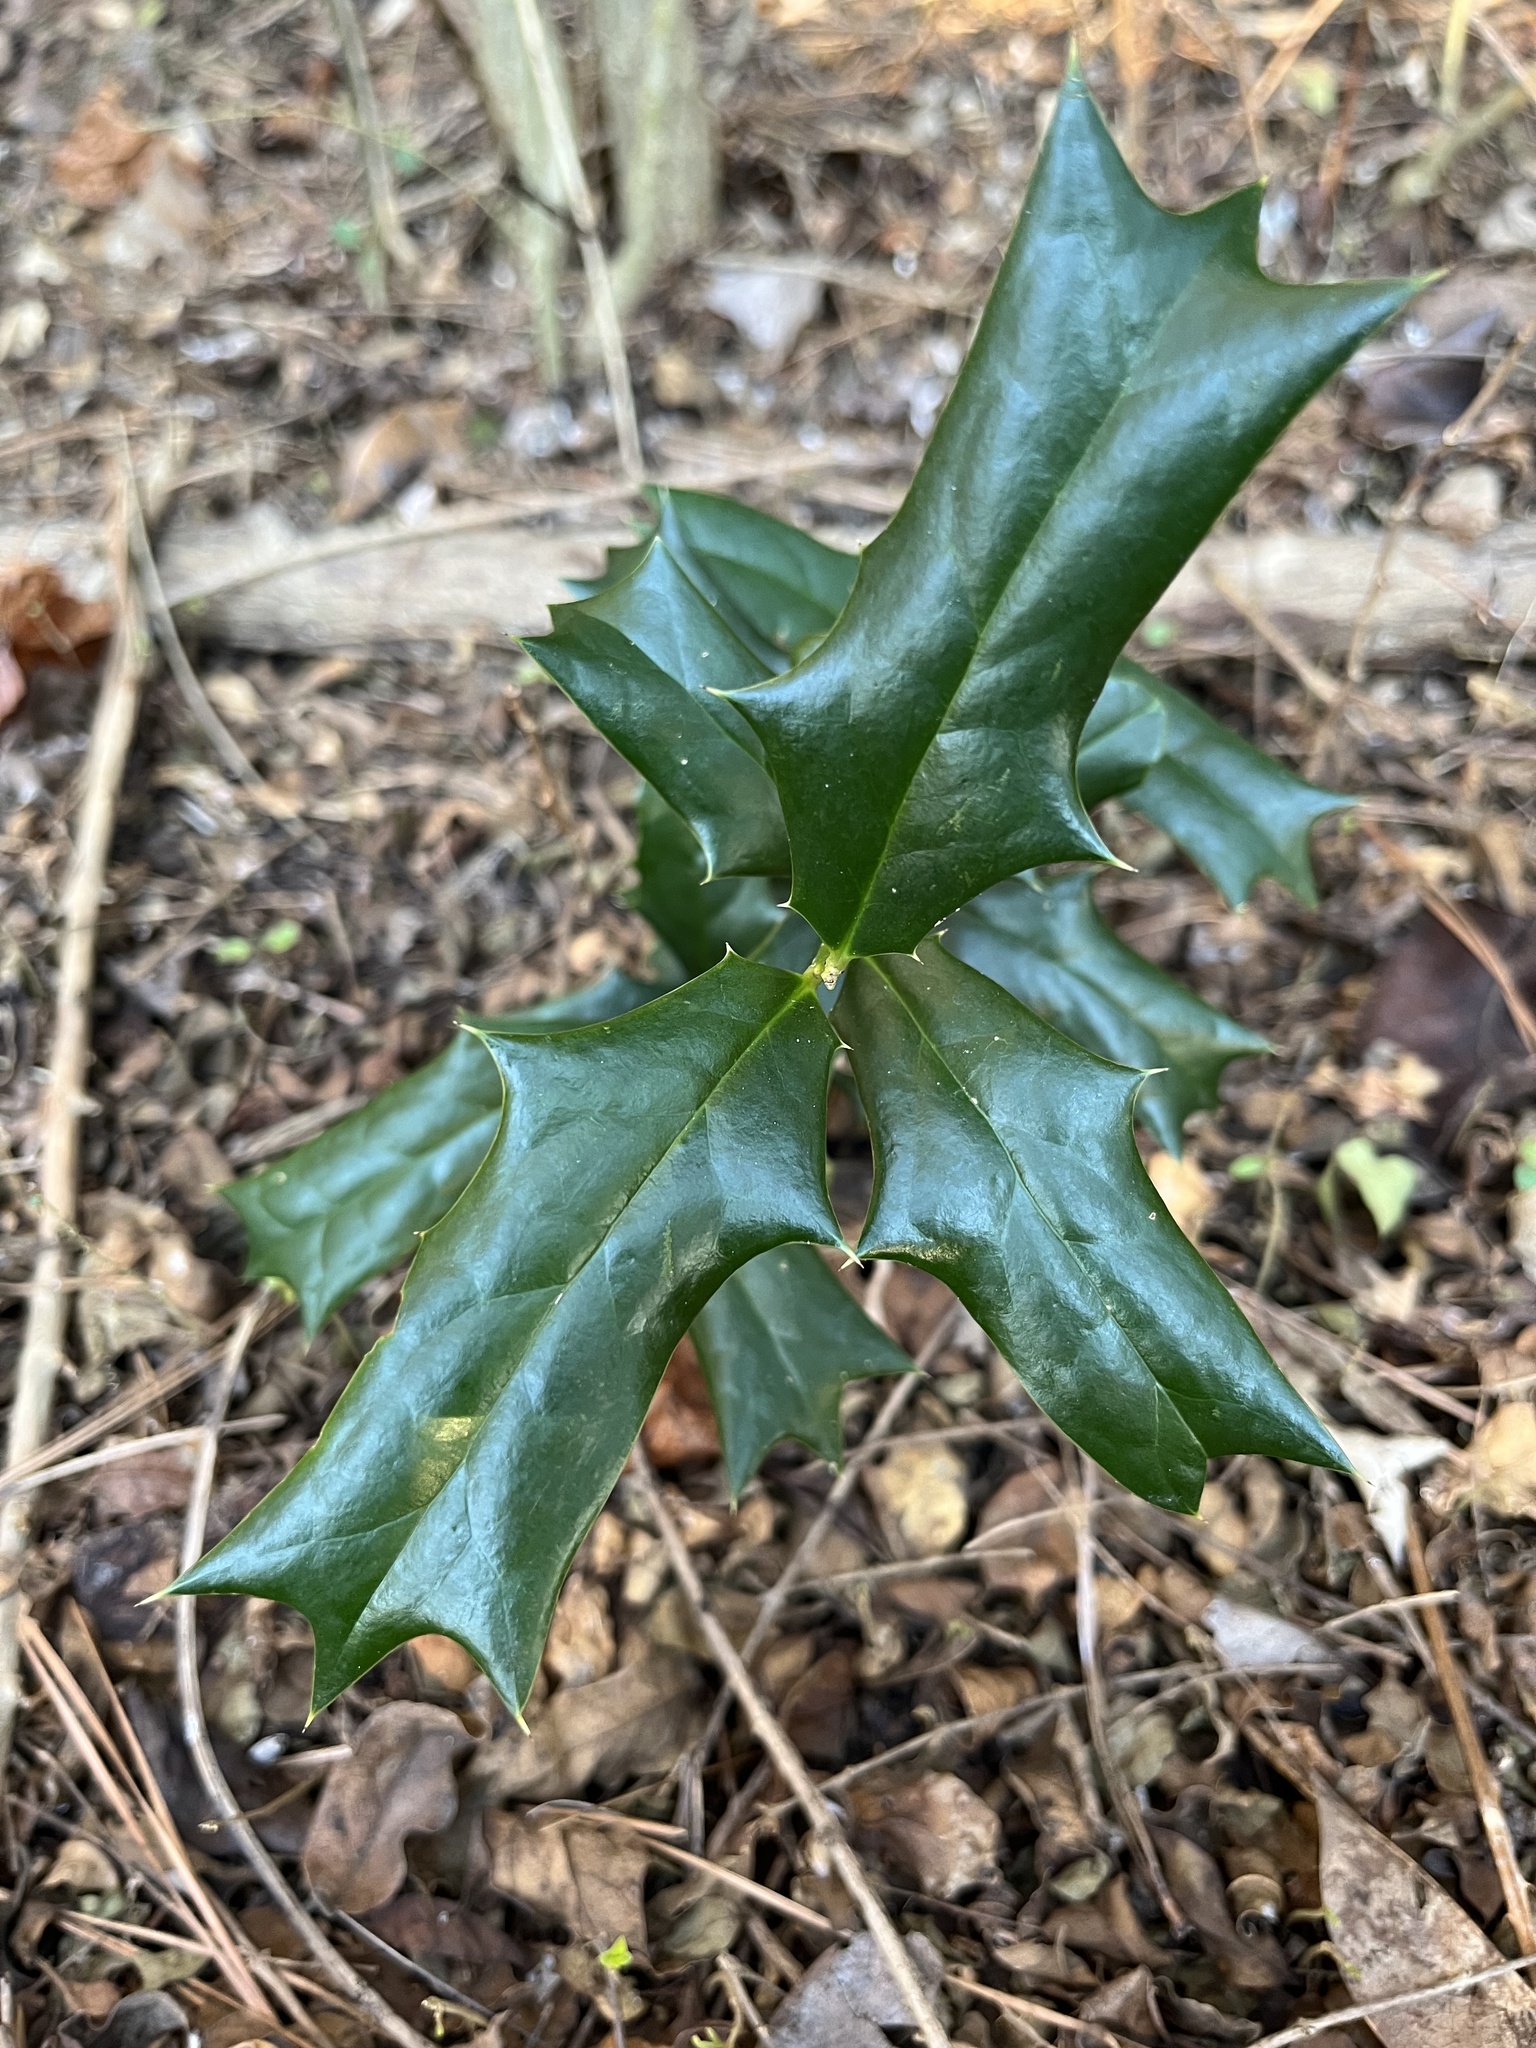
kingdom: Plantae
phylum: Tracheophyta
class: Magnoliopsida
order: Aquifoliales
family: Aquifoliaceae
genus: Ilex
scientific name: Ilex cornuta
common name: Chinese holly
